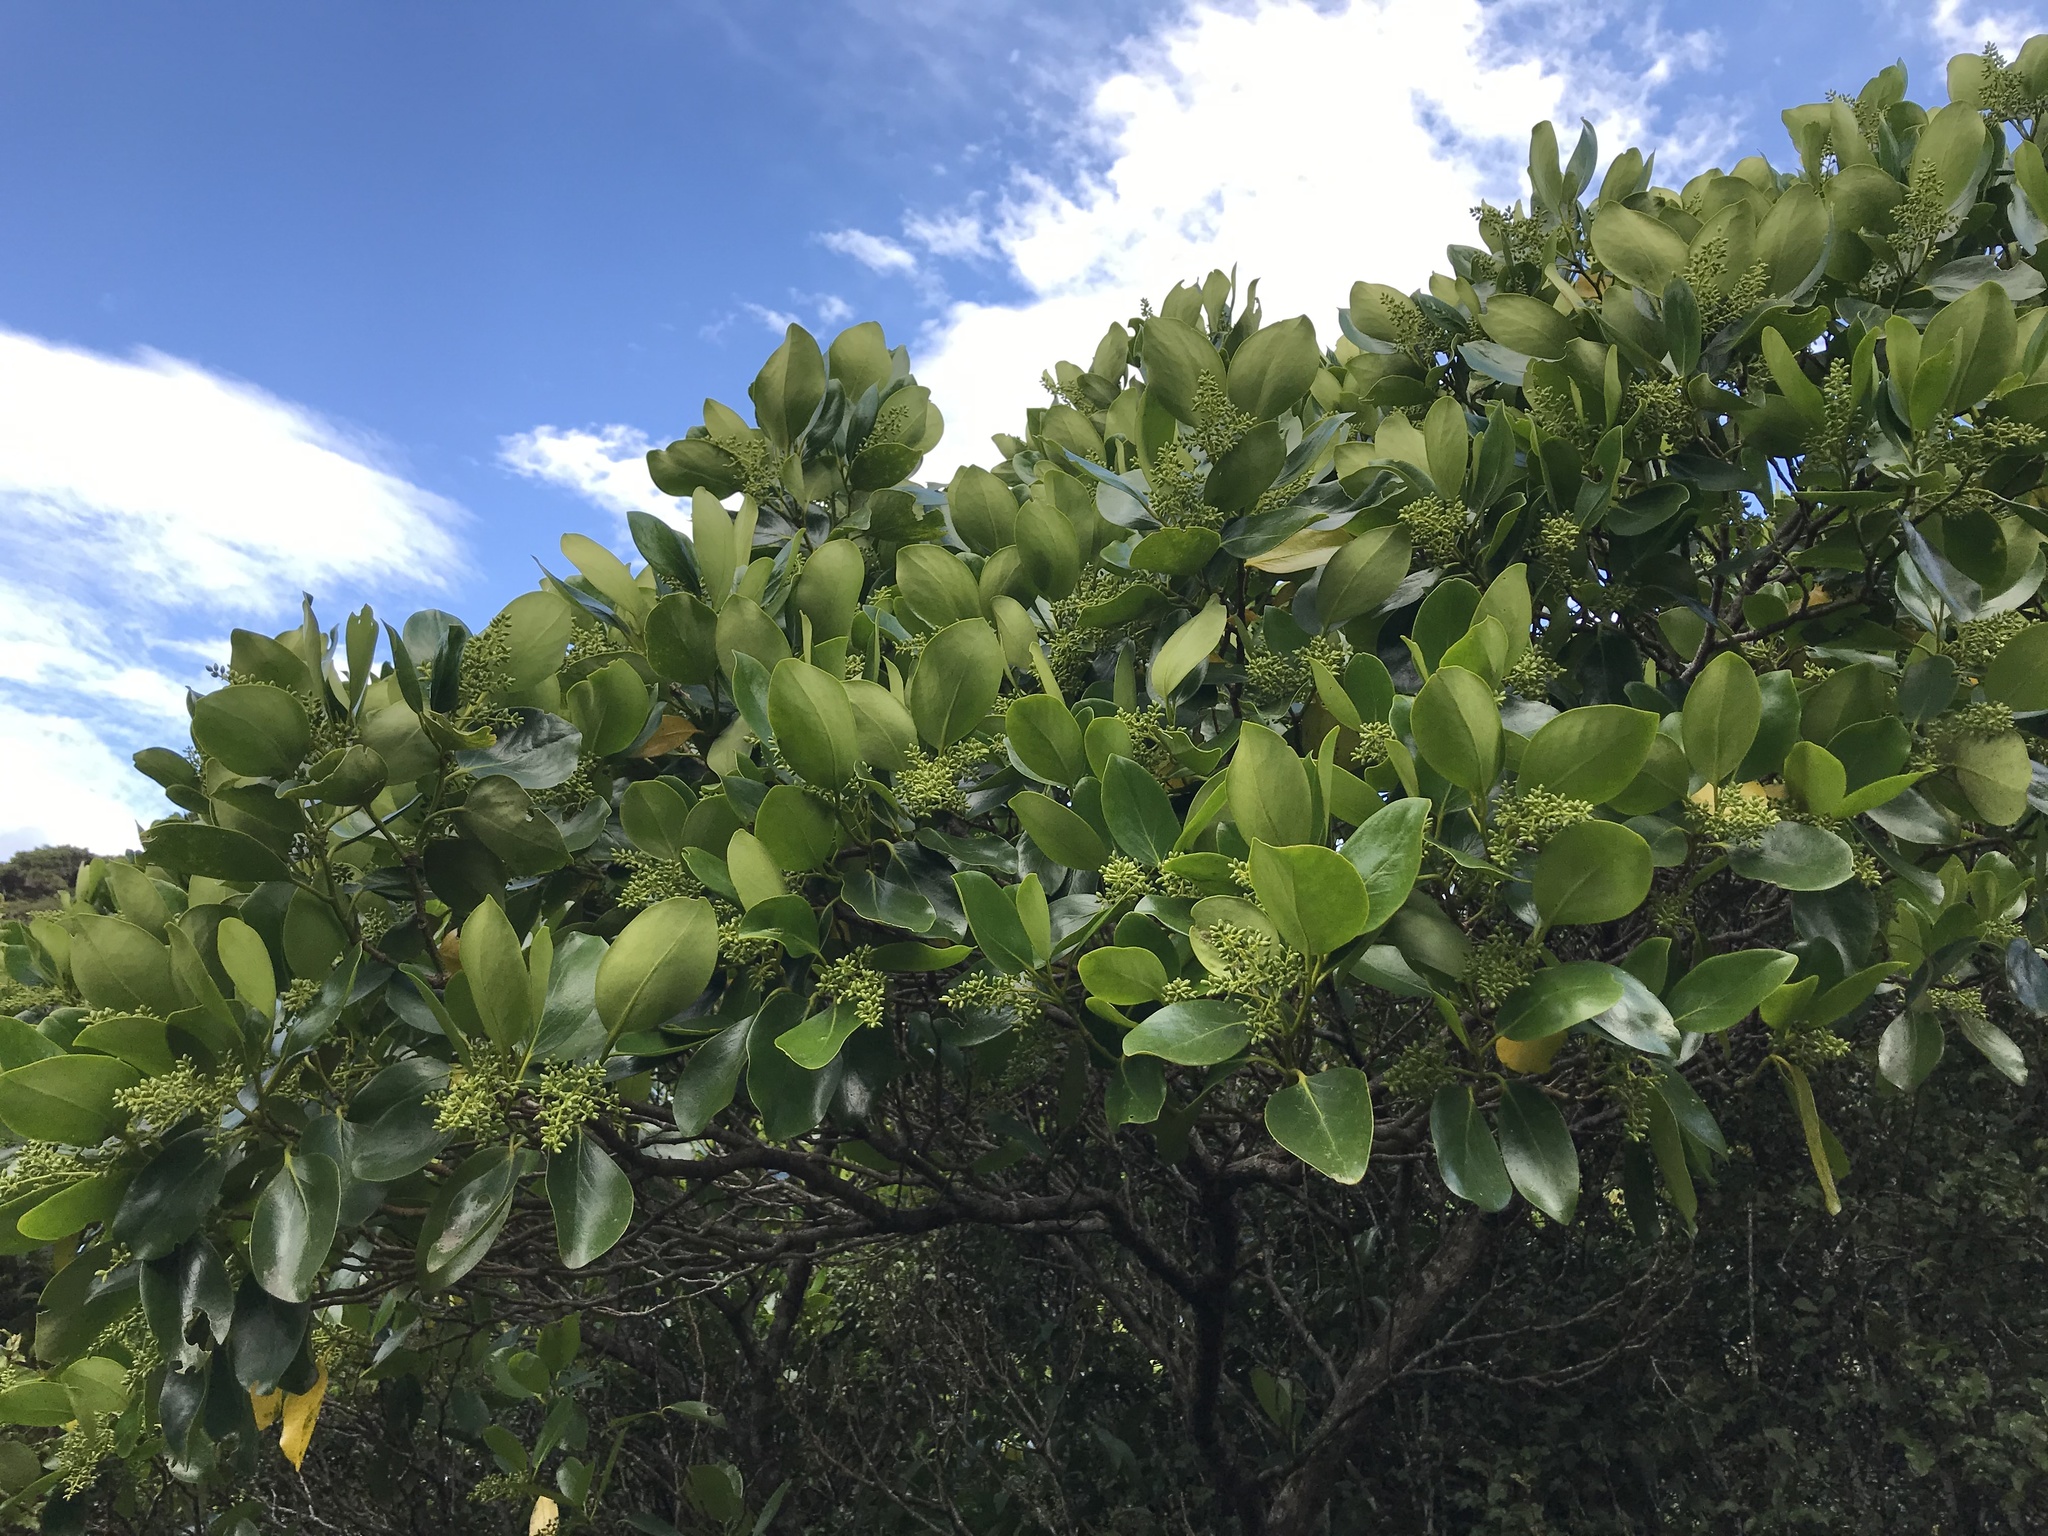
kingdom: Plantae
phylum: Tracheophyta
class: Magnoliopsida
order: Apiales
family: Griseliniaceae
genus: Griselinia
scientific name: Griselinia lucida
